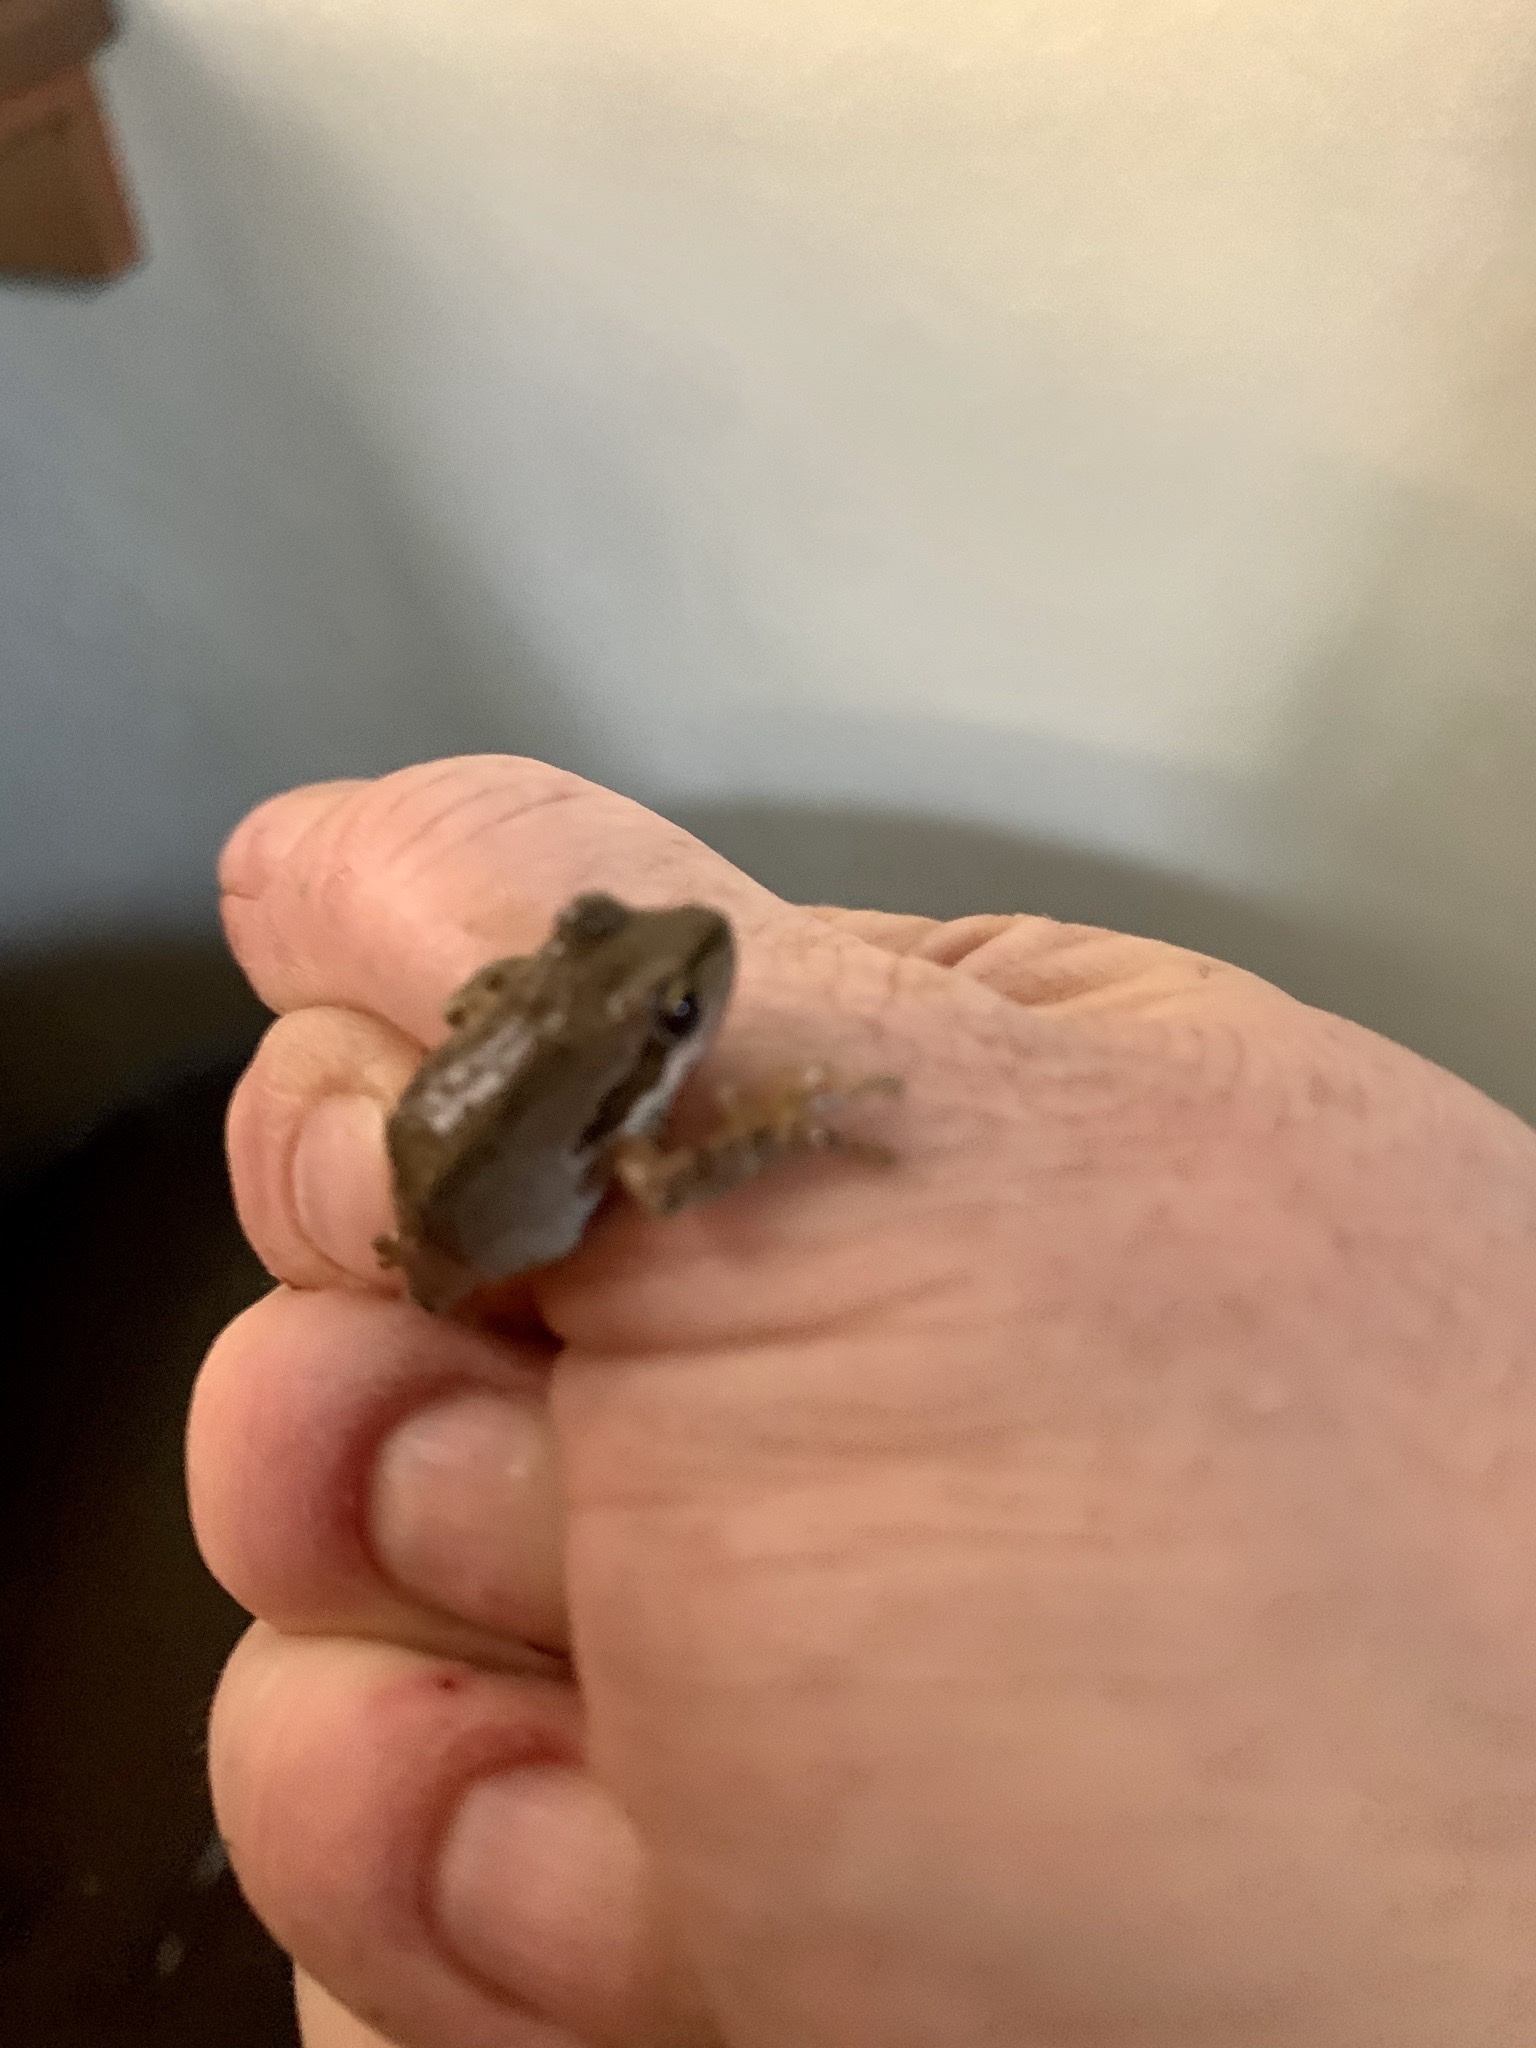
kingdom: Animalia
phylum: Chordata
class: Amphibia
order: Anura
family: Hylidae
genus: Pseudacris
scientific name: Pseudacris regilla
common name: Pacific chorus frog
